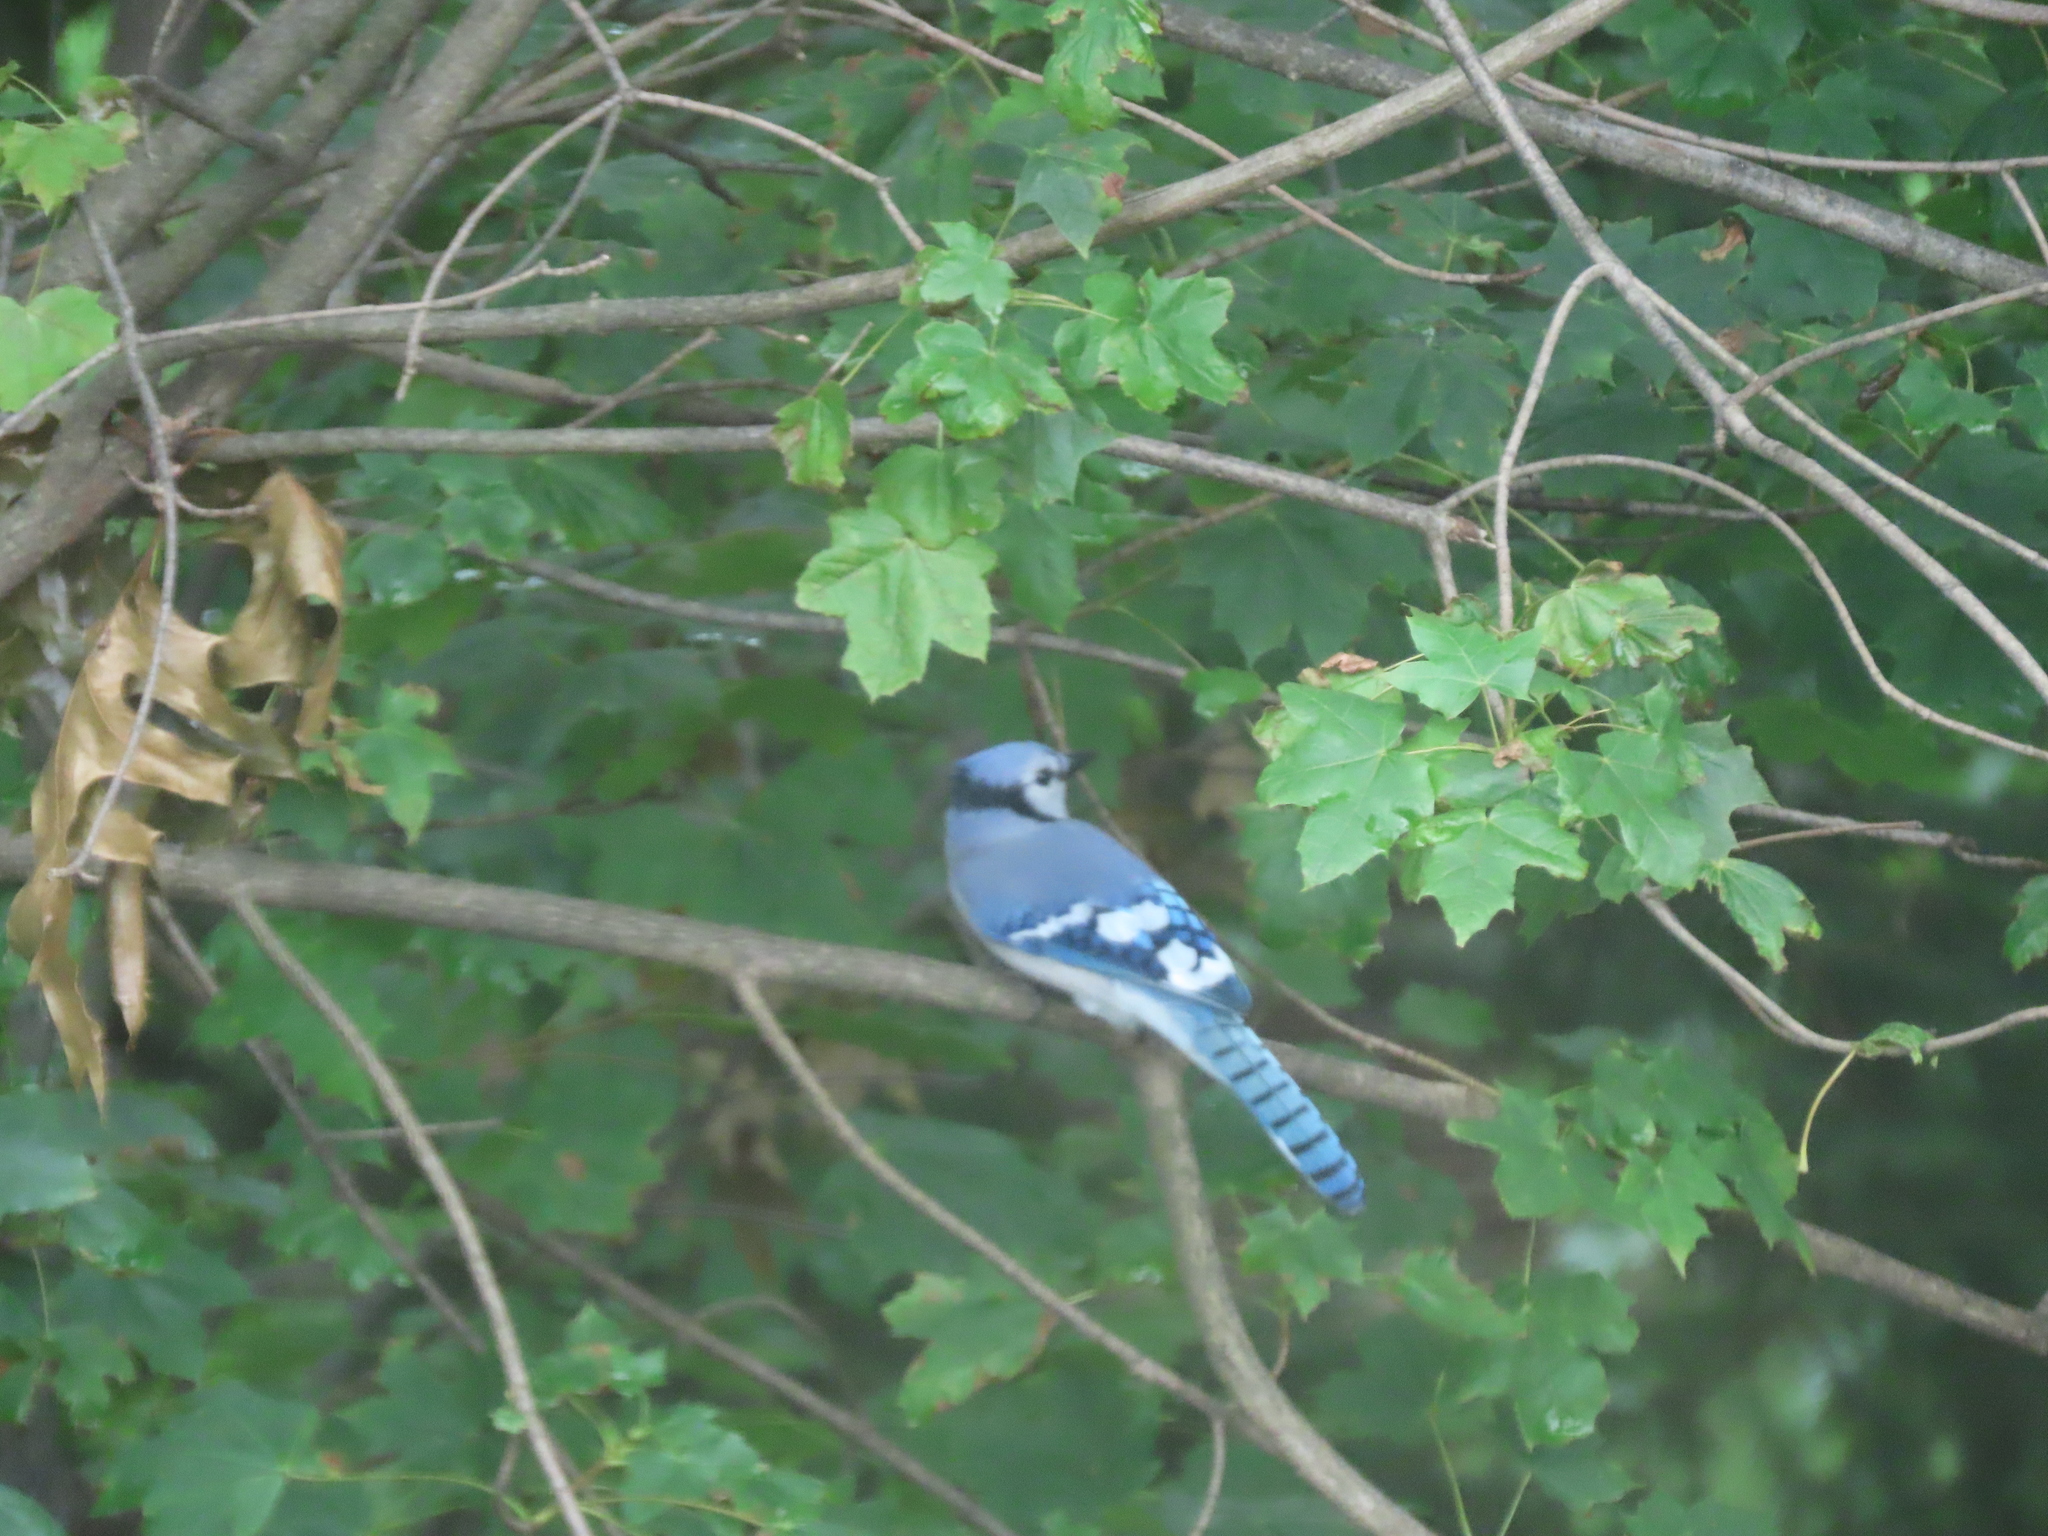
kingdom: Animalia
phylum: Chordata
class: Aves
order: Passeriformes
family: Corvidae
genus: Cyanocitta
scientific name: Cyanocitta cristata
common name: Blue jay
